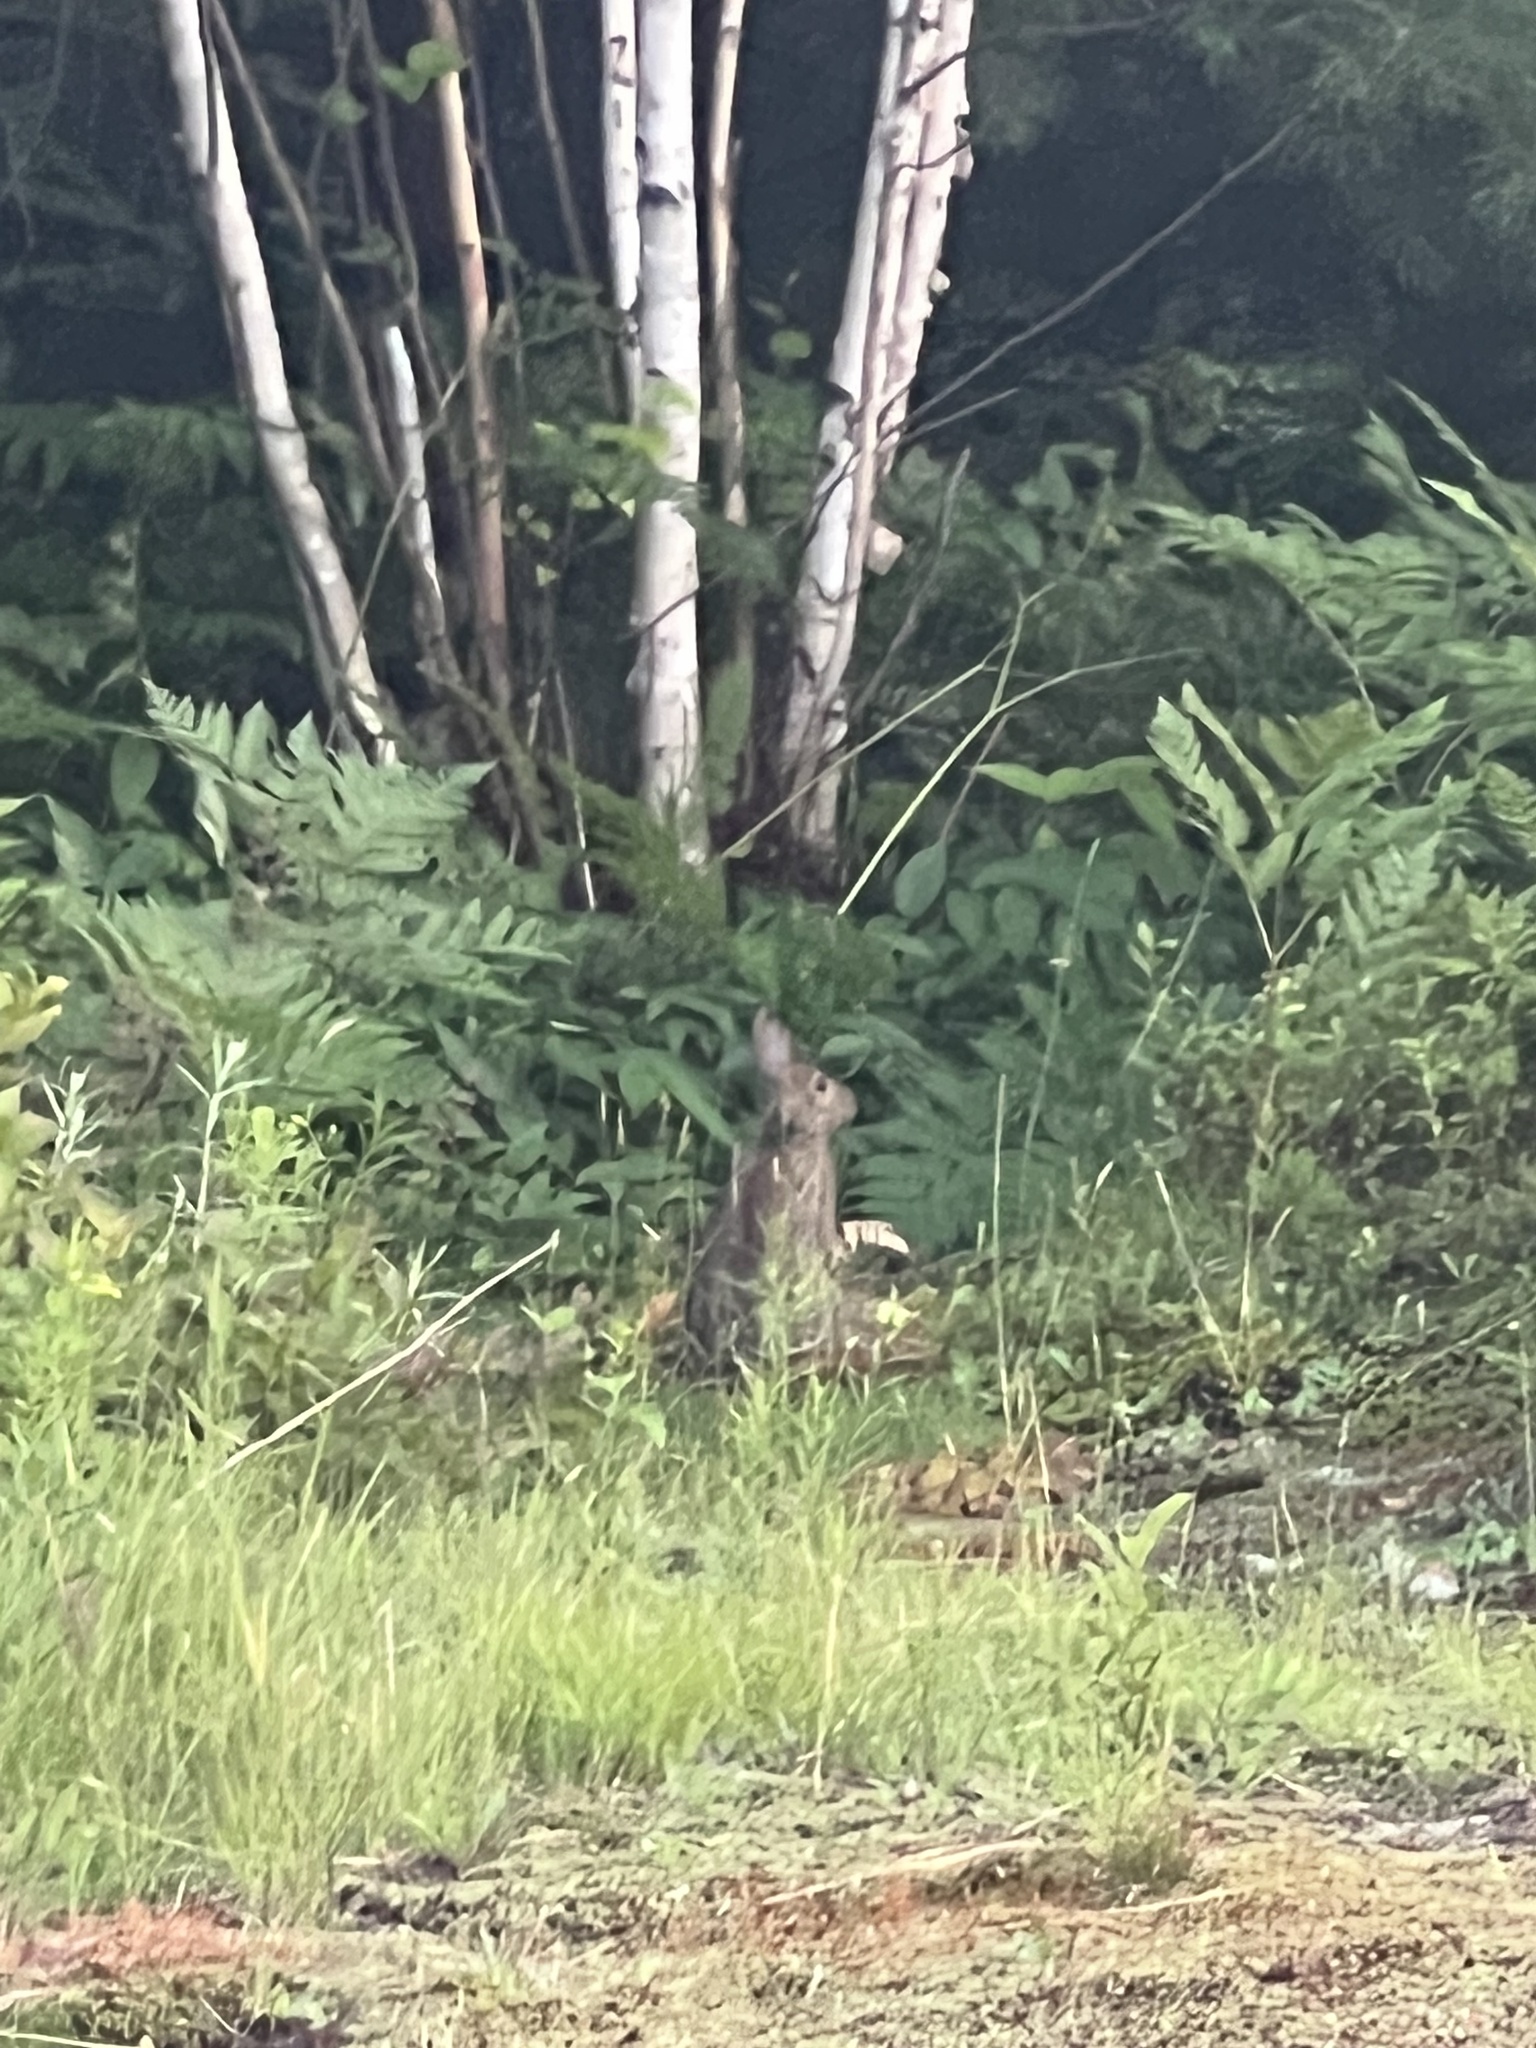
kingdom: Animalia
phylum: Chordata
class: Mammalia
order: Lagomorpha
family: Leporidae
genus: Lepus
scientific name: Lepus americanus
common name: Snowshoe hare
